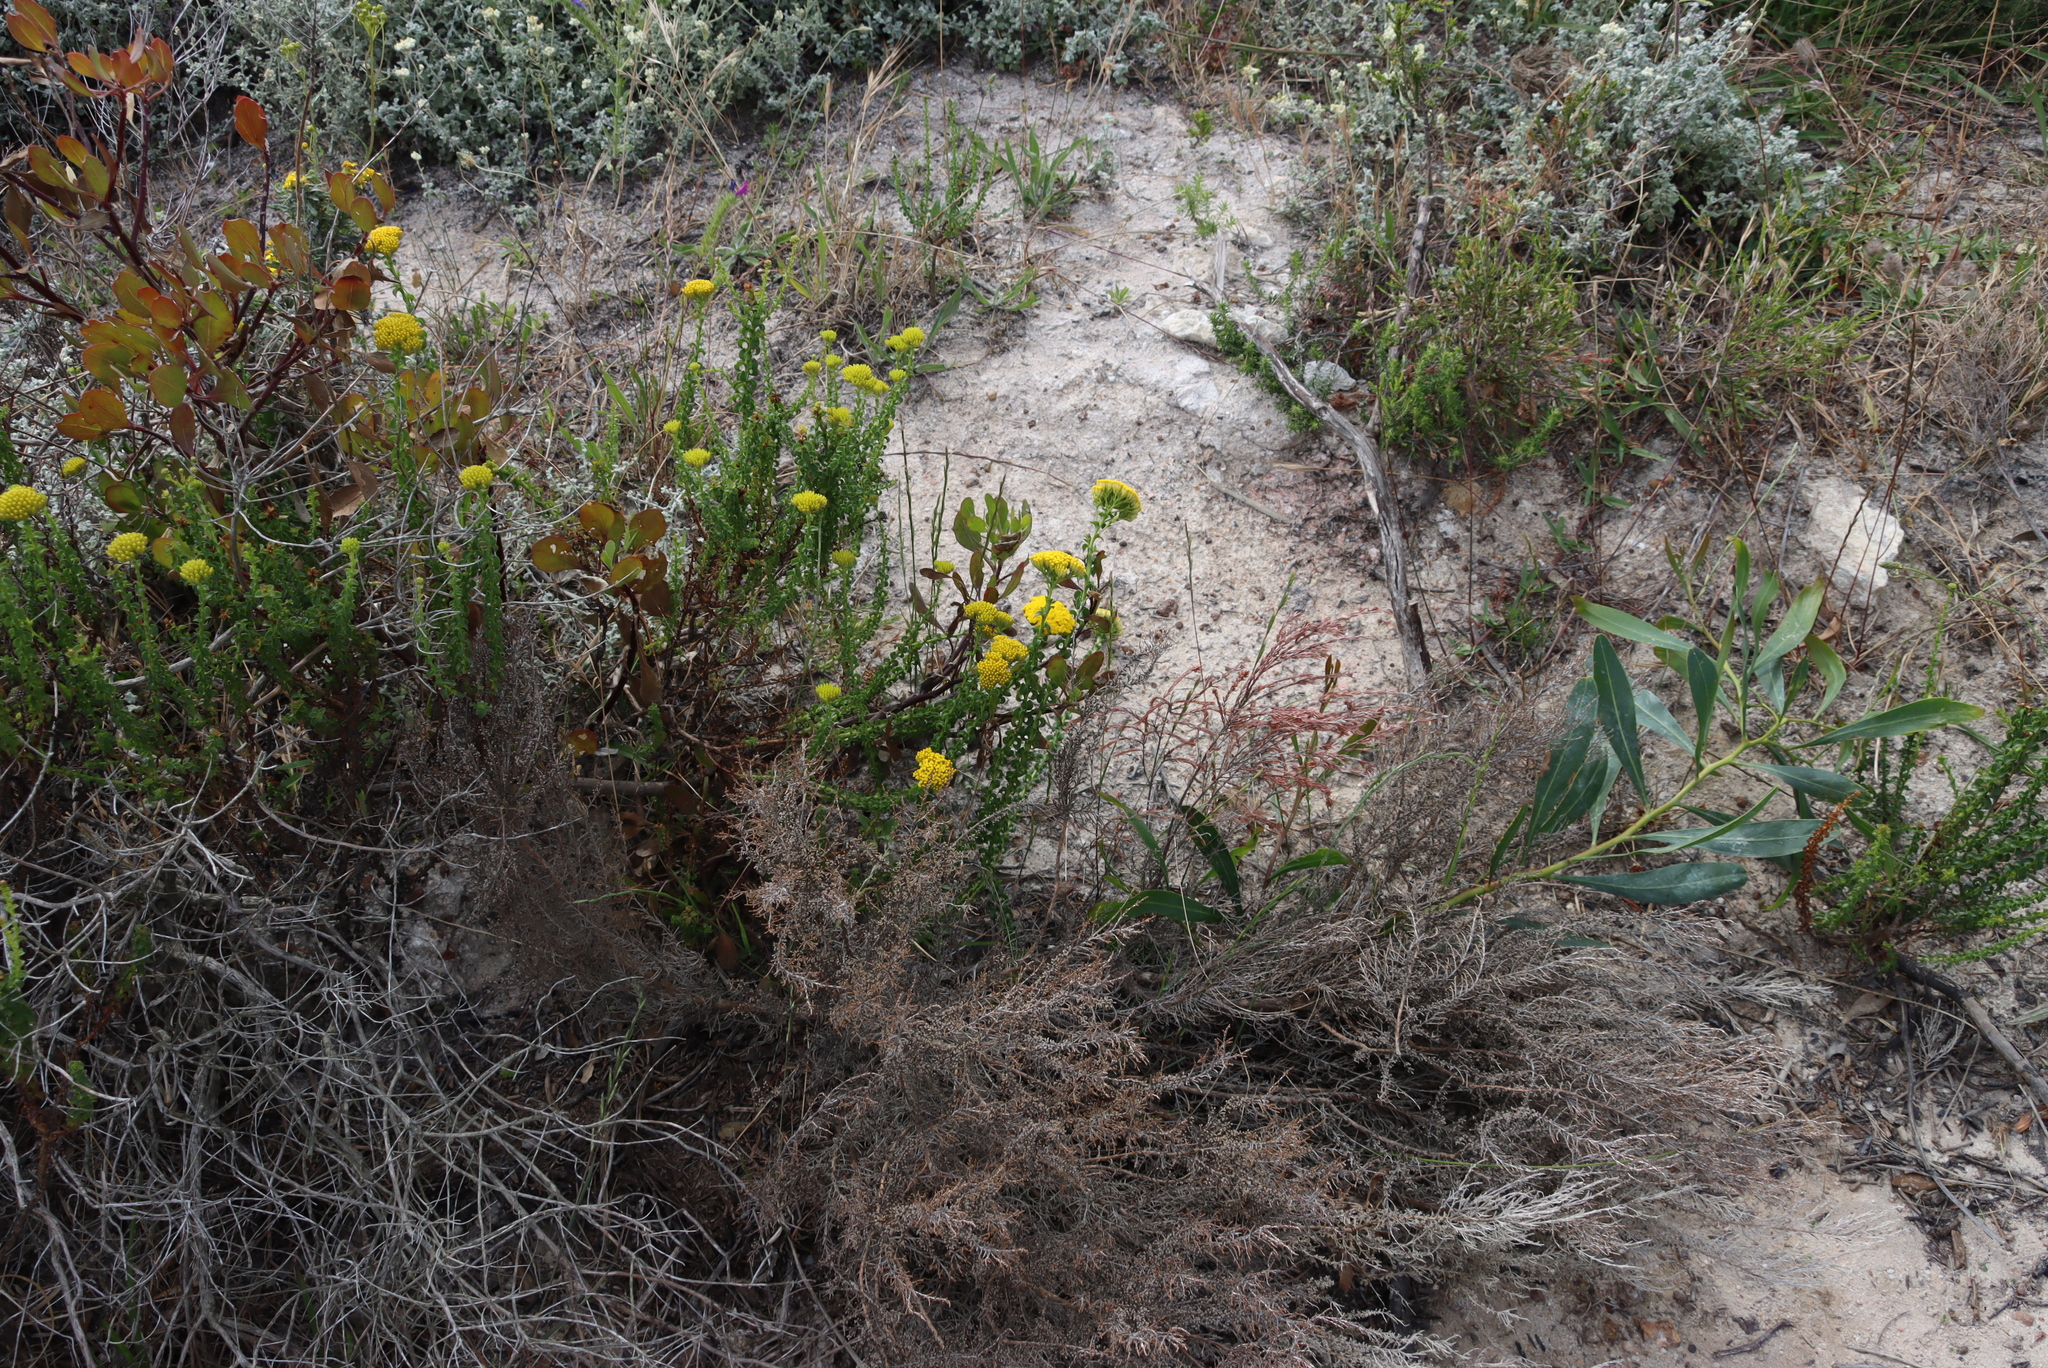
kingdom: Plantae
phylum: Tracheophyta
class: Magnoliopsida
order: Asterales
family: Asteraceae
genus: Athanasia
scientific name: Athanasia dentata
